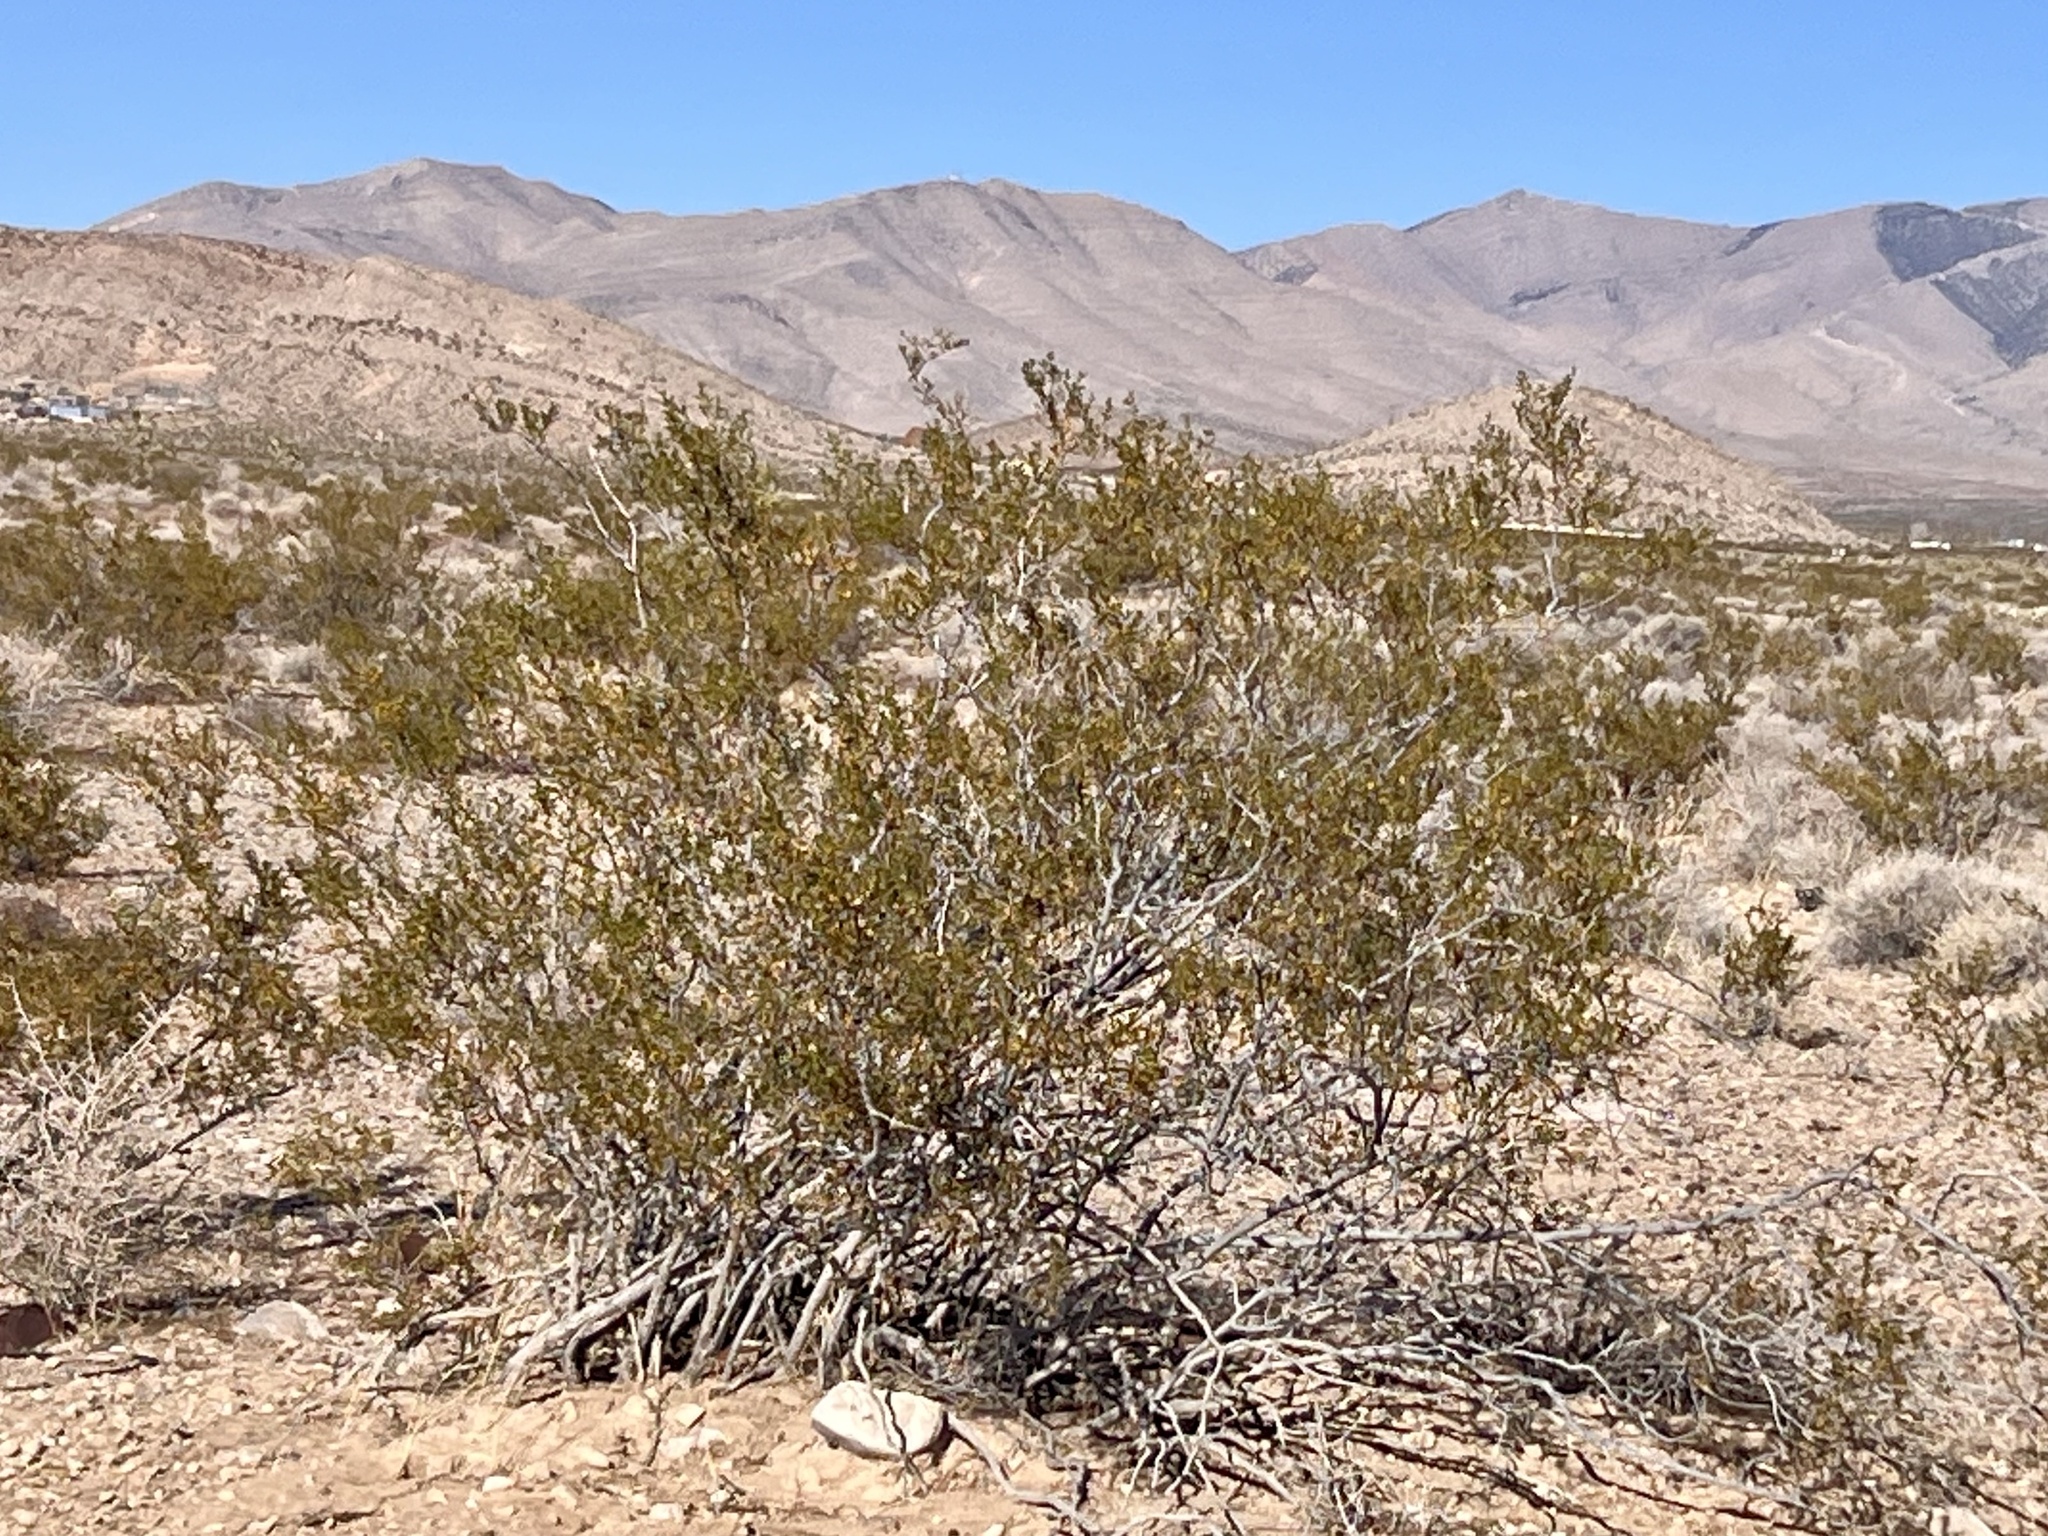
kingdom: Plantae
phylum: Tracheophyta
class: Magnoliopsida
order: Zygophyllales
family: Zygophyllaceae
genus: Larrea
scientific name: Larrea tridentata
